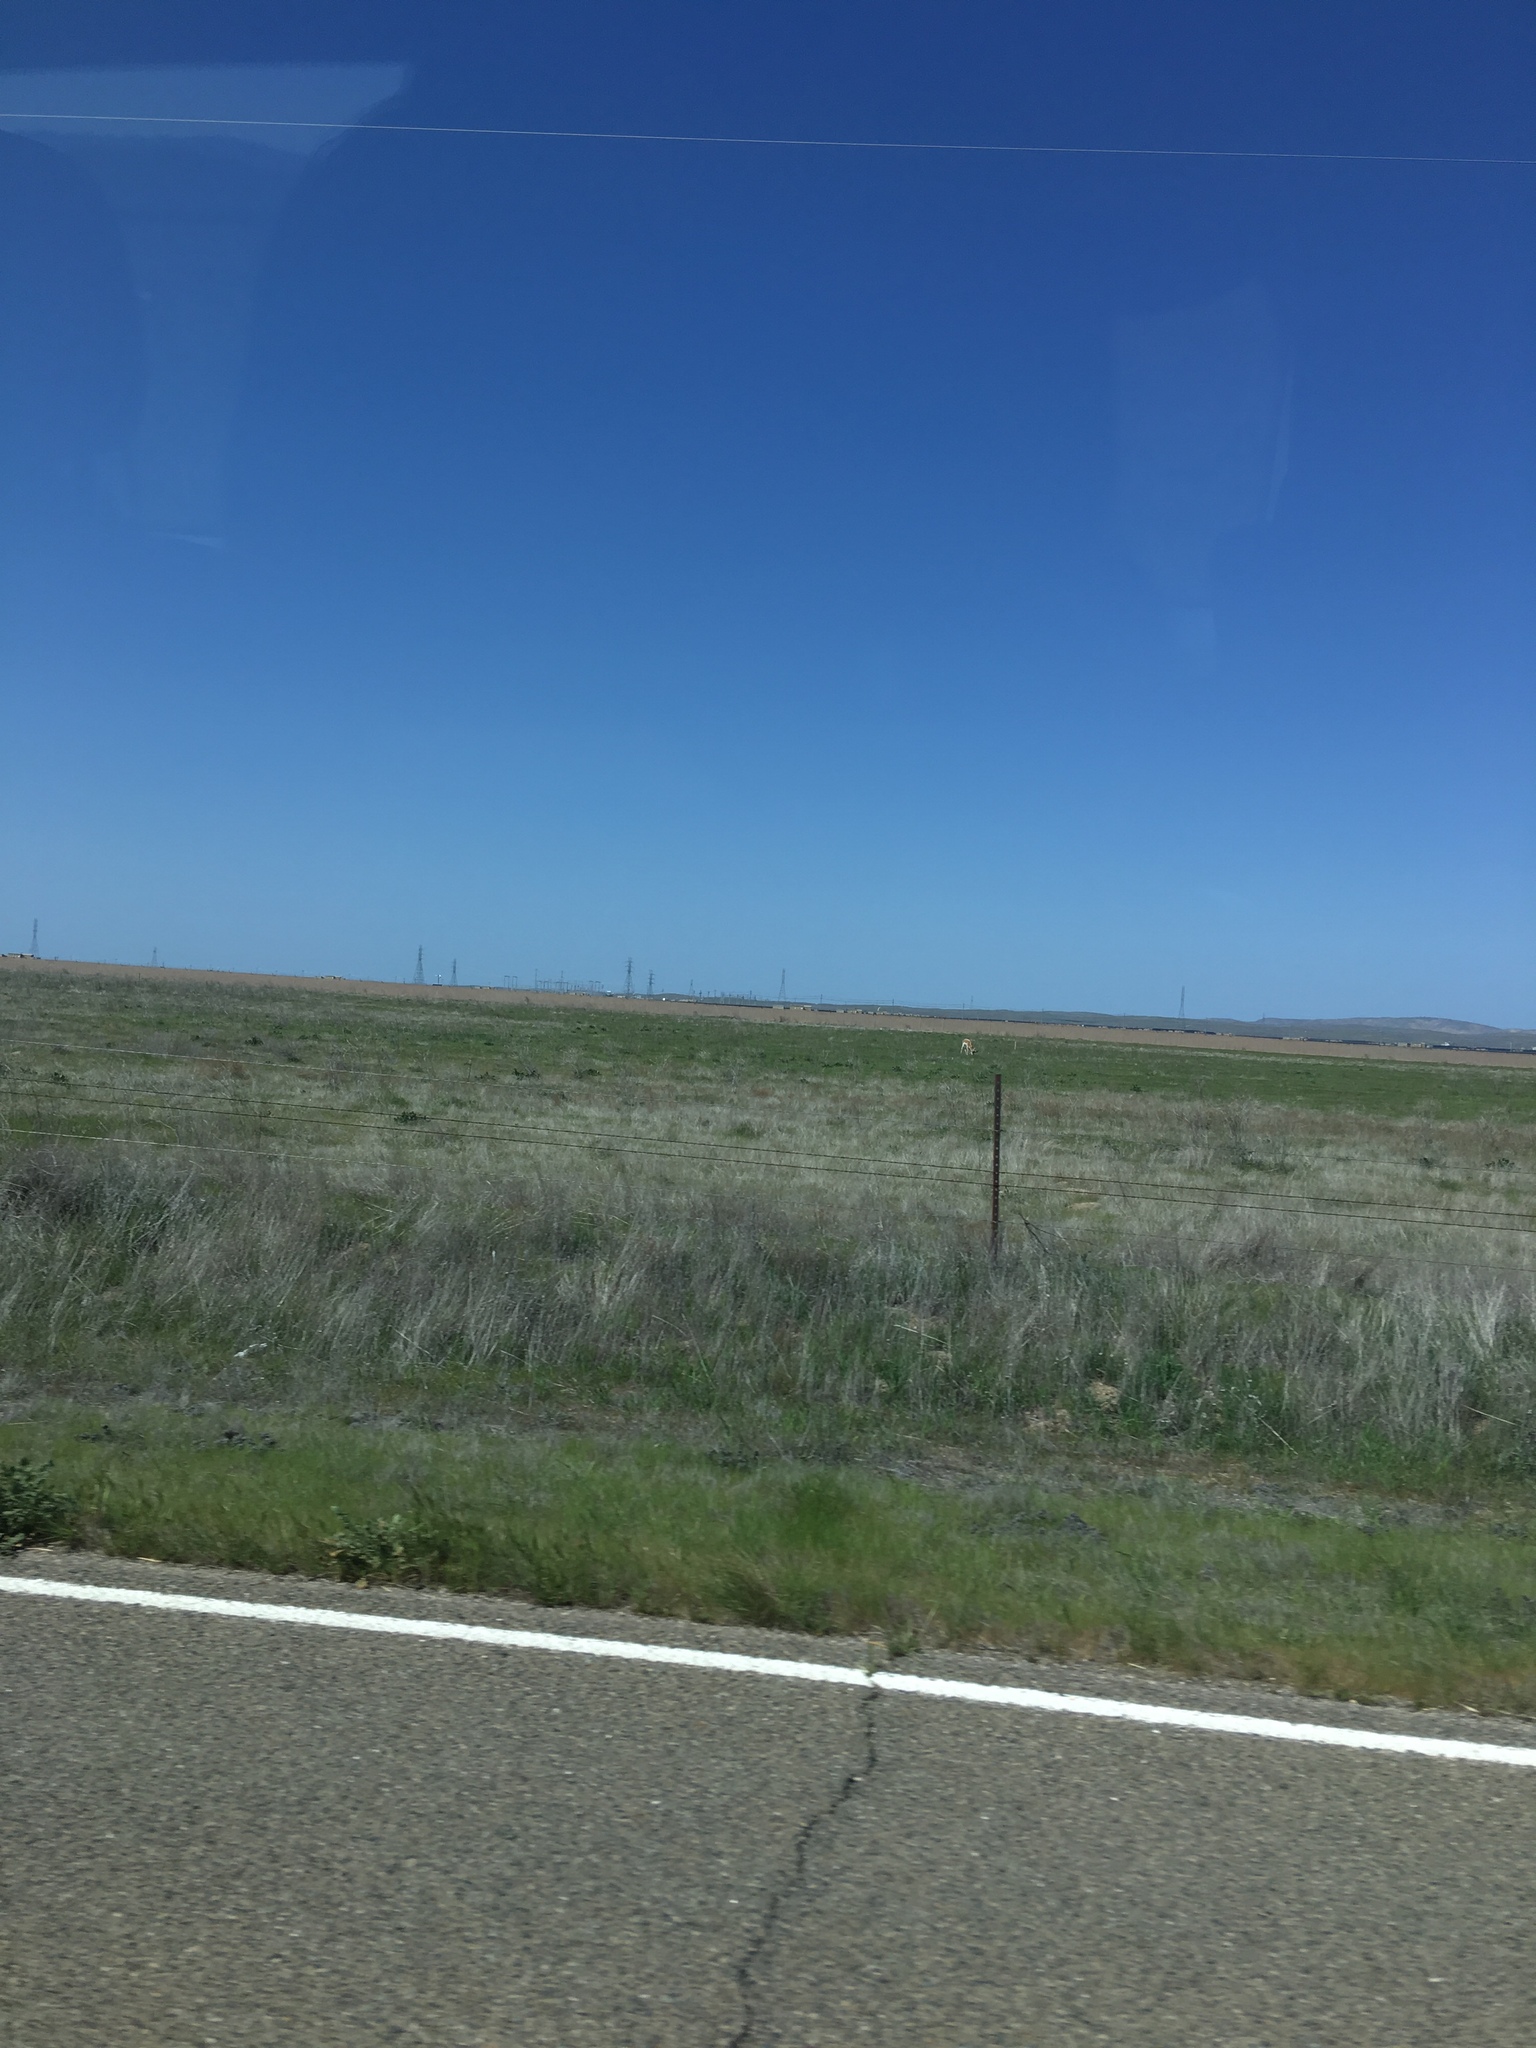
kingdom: Animalia
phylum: Chordata
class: Mammalia
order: Artiodactyla
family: Antilocapridae
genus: Antilocapra
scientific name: Antilocapra americana
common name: Pronghorn
